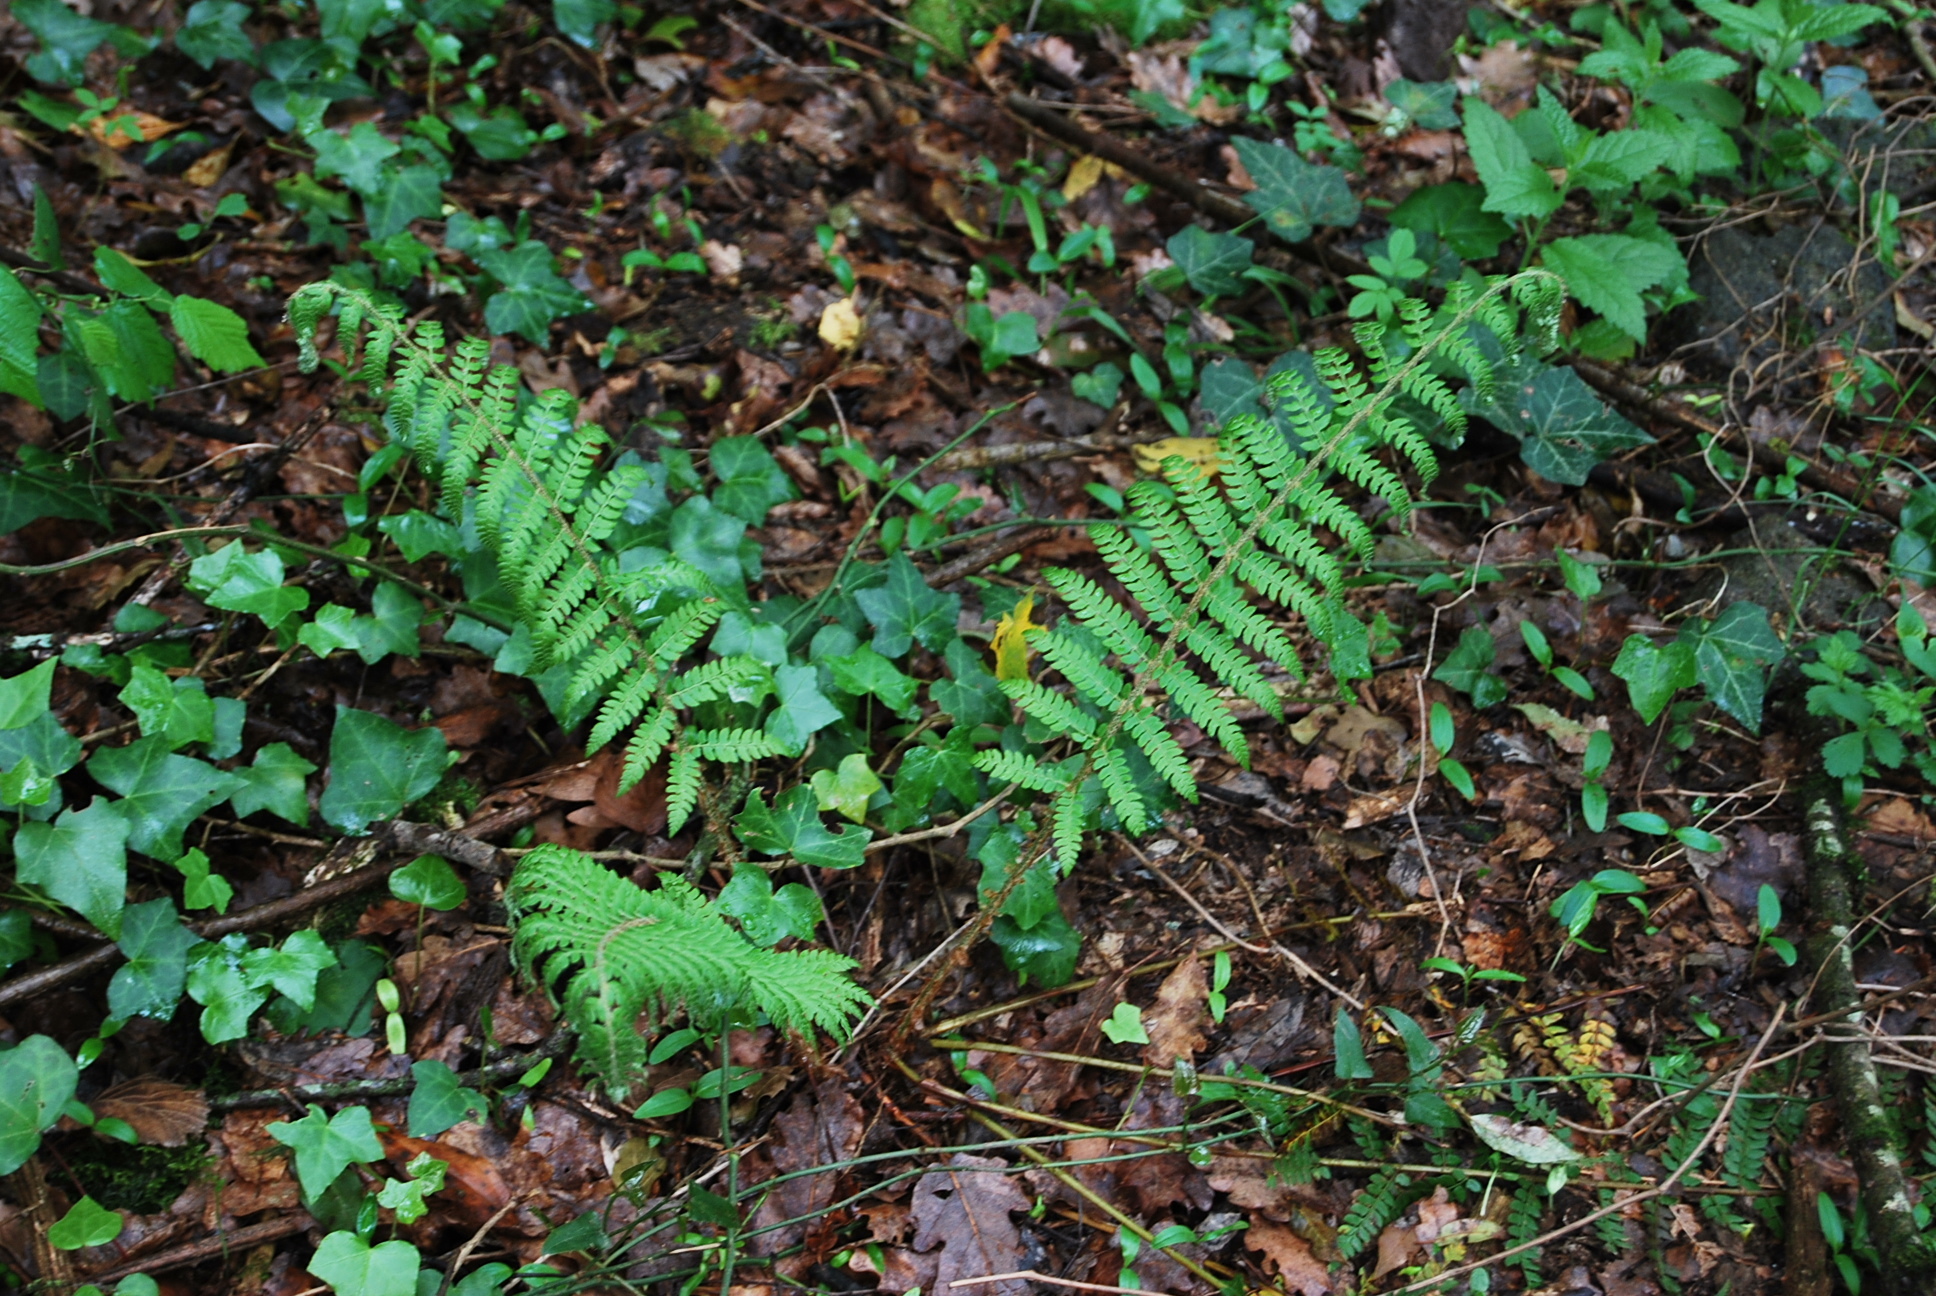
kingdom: Plantae
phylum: Tracheophyta
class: Polypodiopsida
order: Polypodiales
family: Dryopteridaceae
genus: Polystichum
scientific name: Polystichum setiferum
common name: Soft shield-fern
